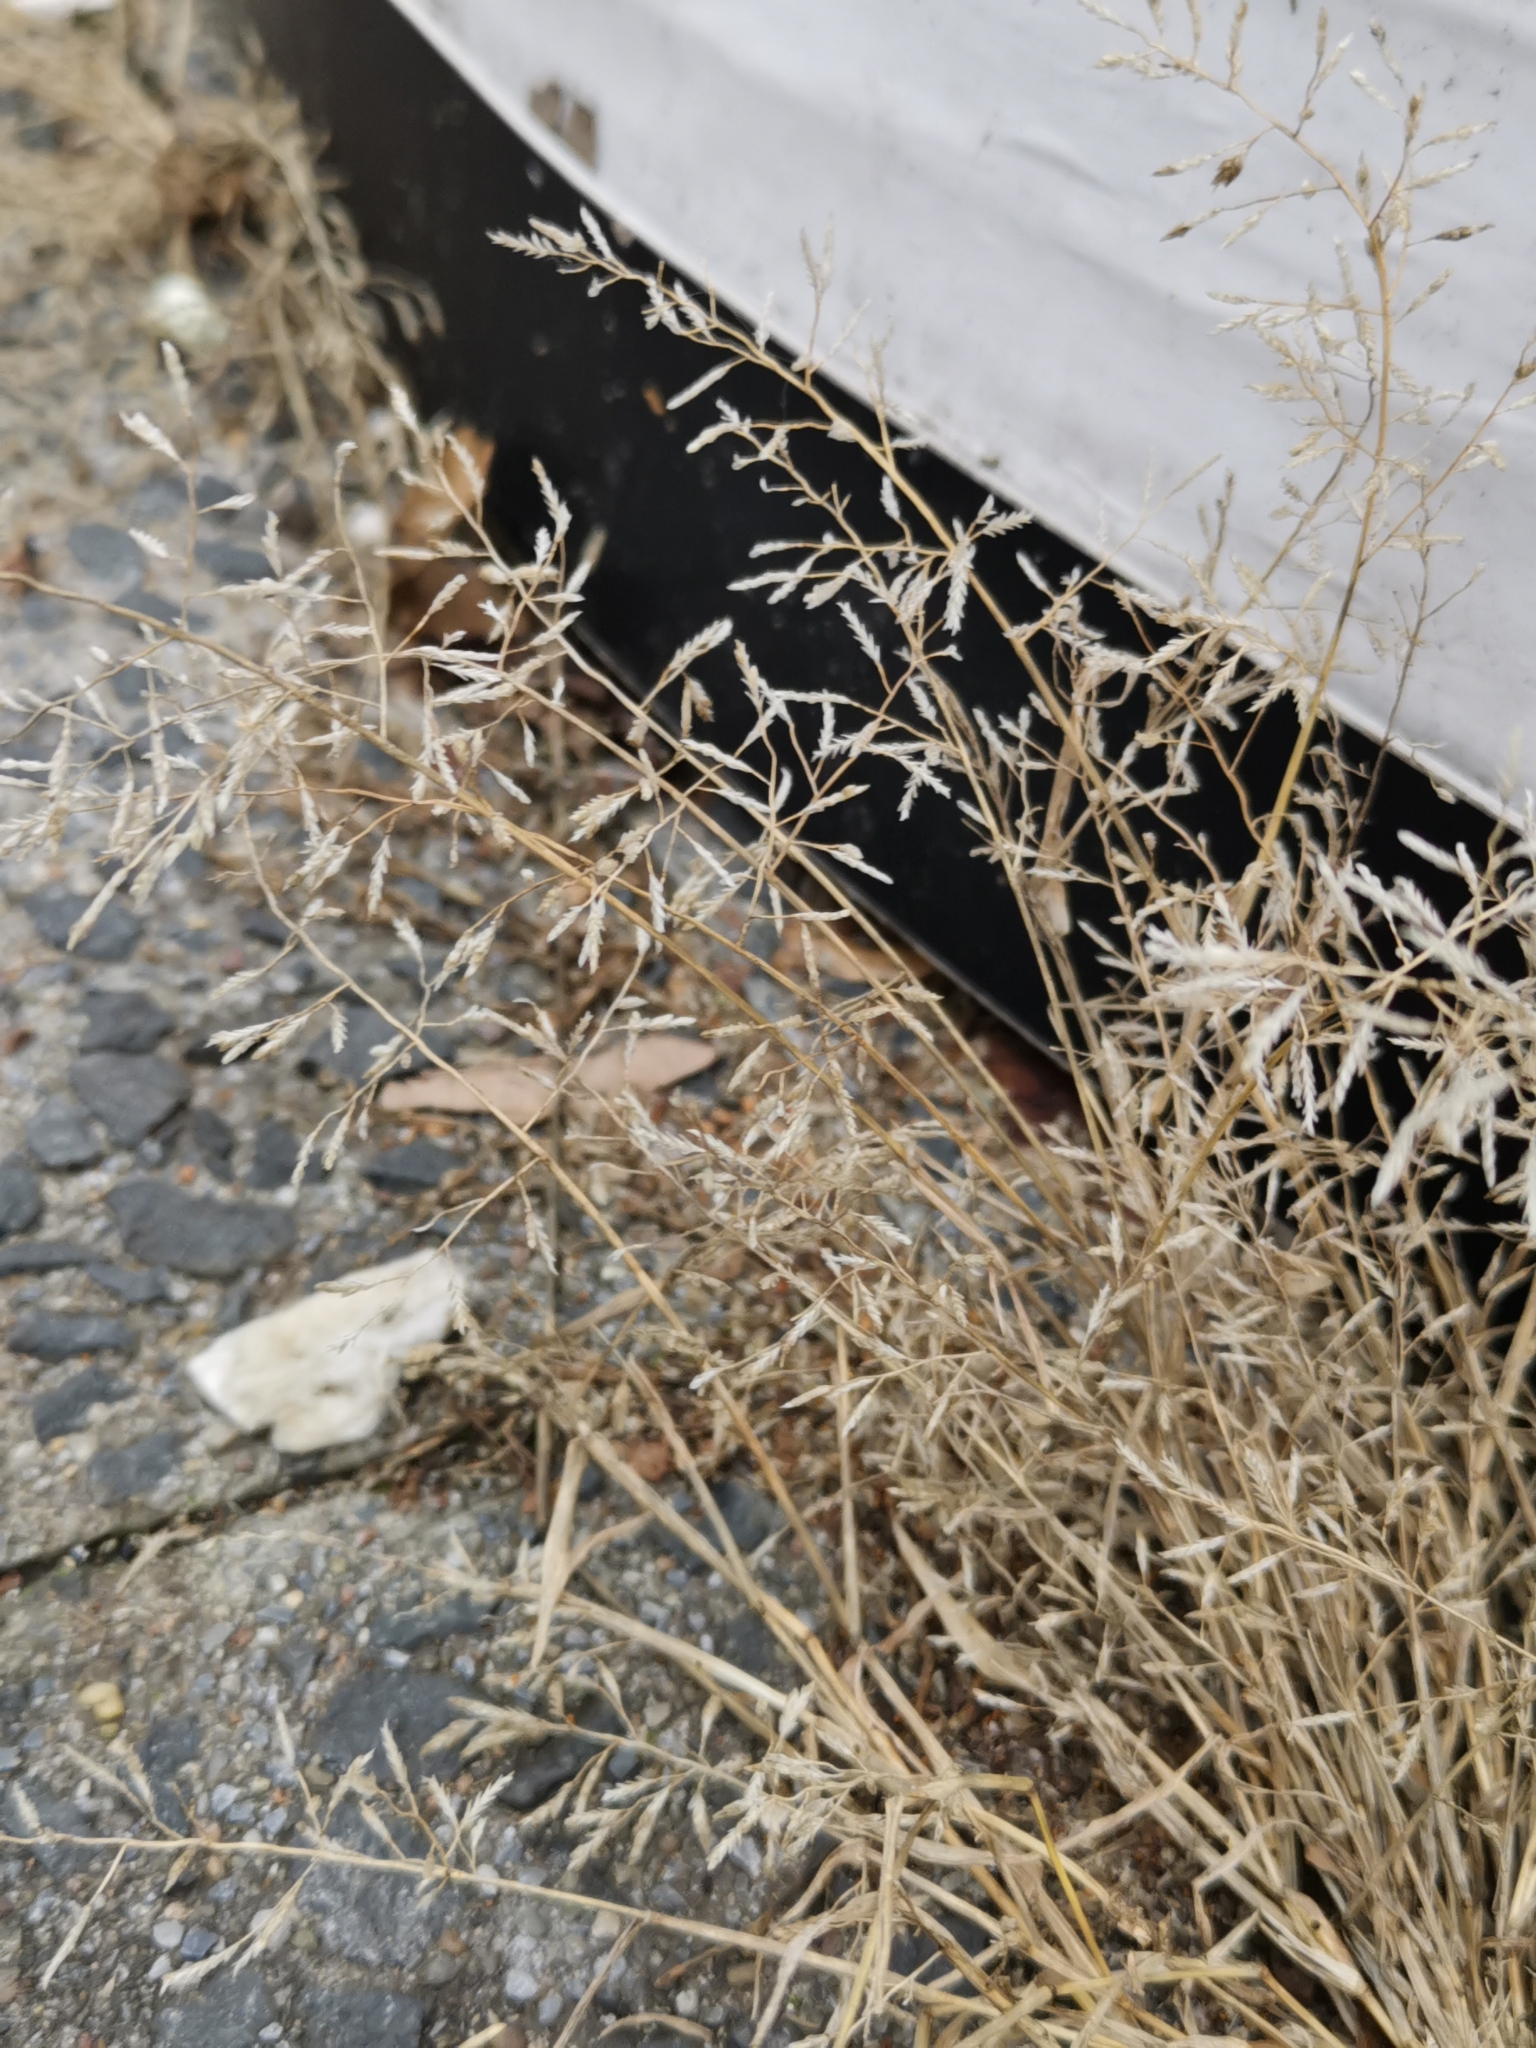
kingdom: Plantae
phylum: Tracheophyta
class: Liliopsida
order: Poales
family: Poaceae
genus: Eragrostis
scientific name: Eragrostis minor
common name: Small love-grass
